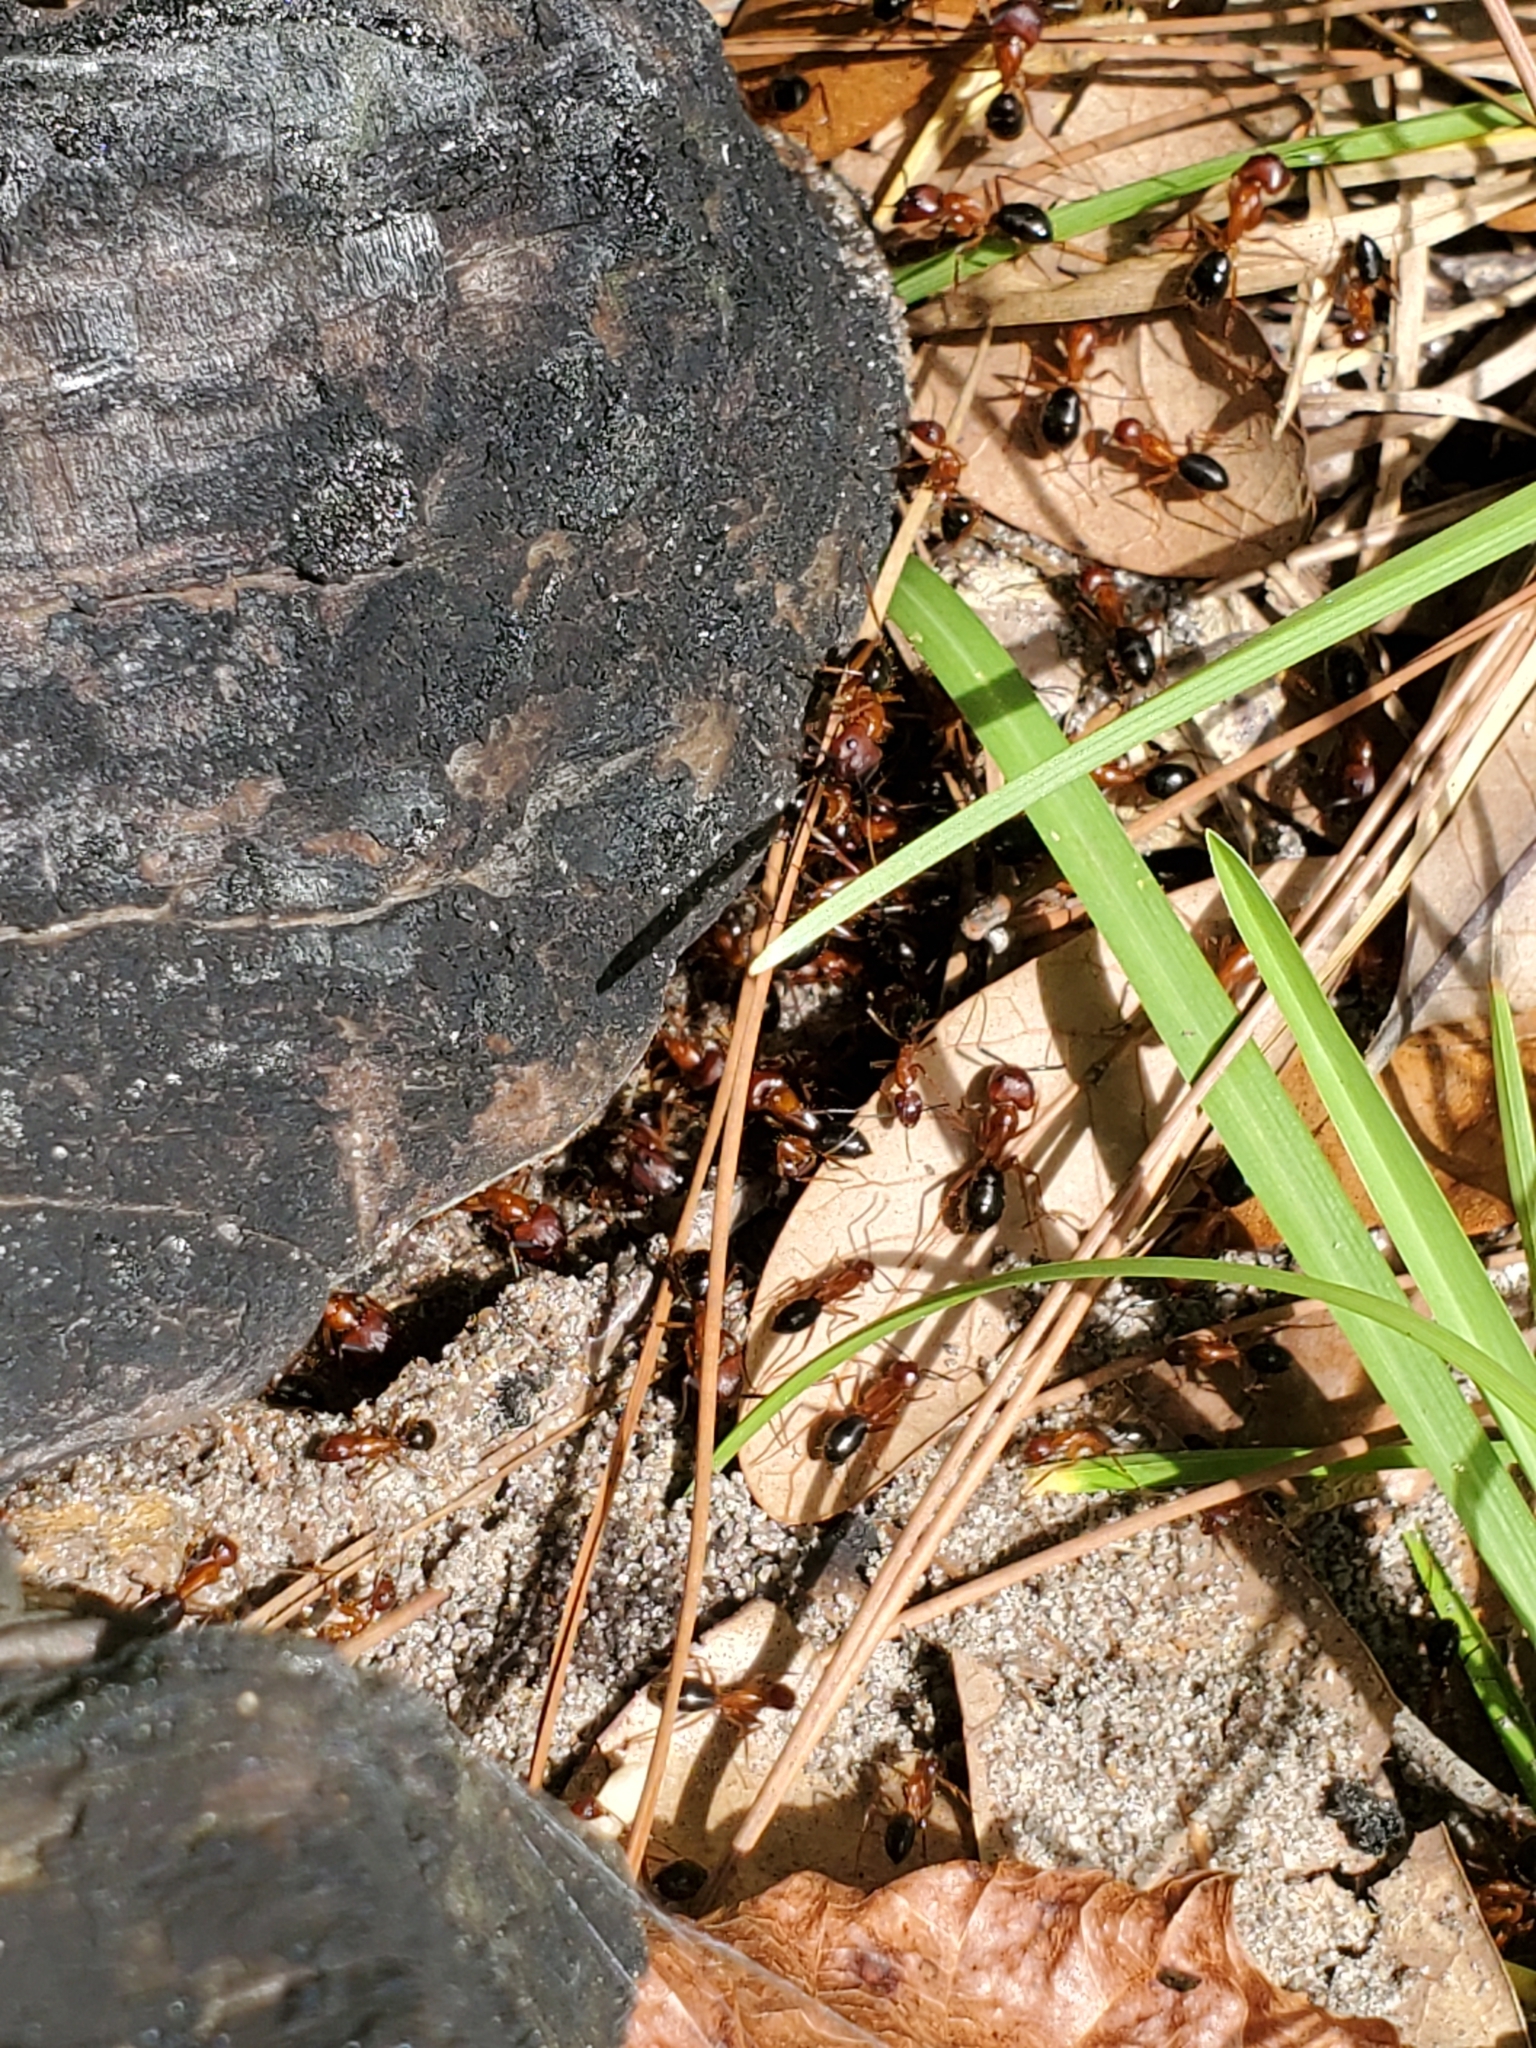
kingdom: Animalia
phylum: Arthropoda
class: Insecta
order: Hymenoptera
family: Formicidae
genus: Camponotus
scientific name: Camponotus floridanus
